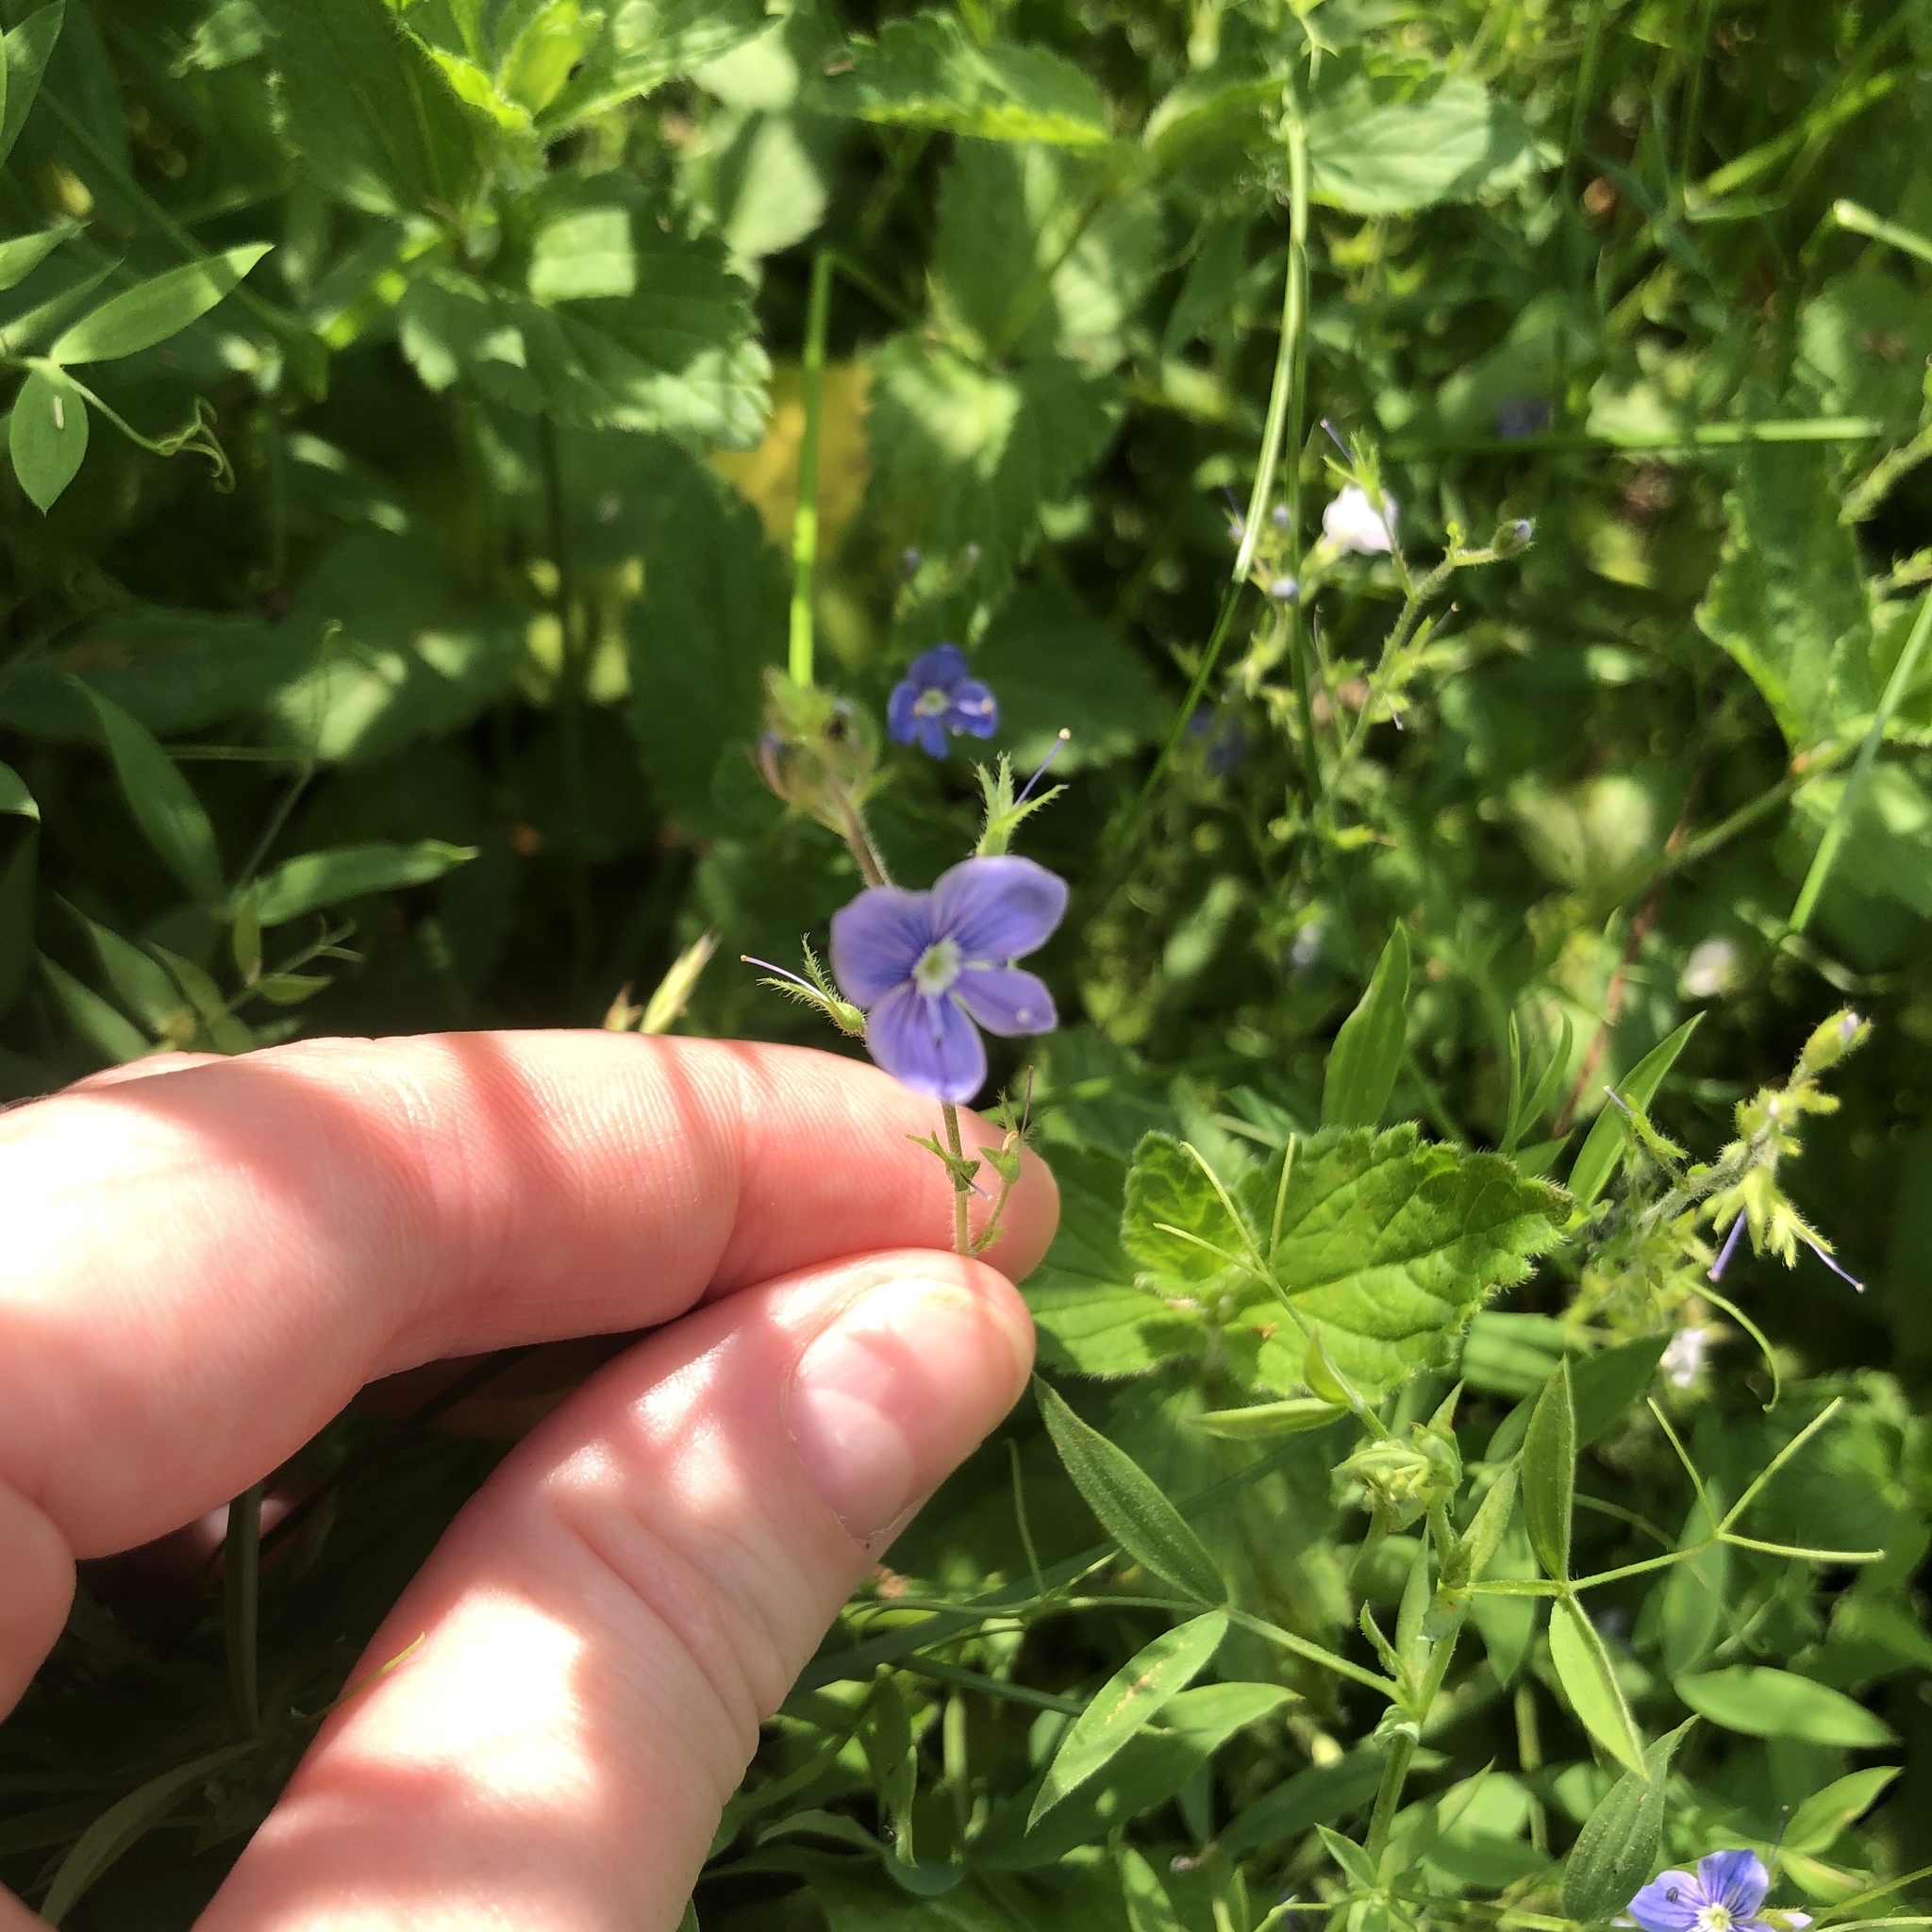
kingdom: Plantae
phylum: Tracheophyta
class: Magnoliopsida
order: Lamiales
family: Plantaginaceae
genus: Veronica
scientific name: Veronica chamaedrys
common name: Germander speedwell
